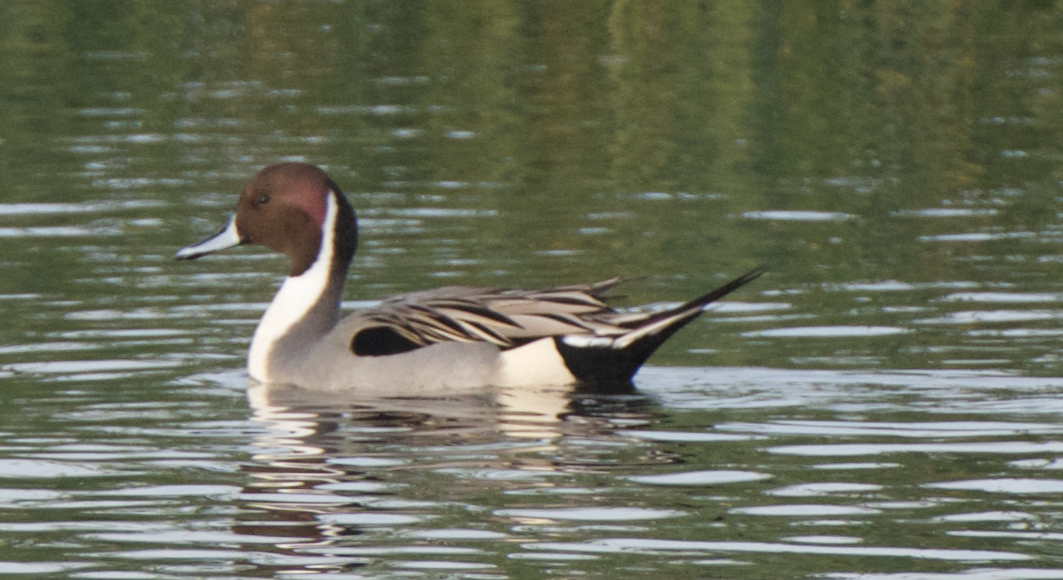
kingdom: Animalia
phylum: Chordata
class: Aves
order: Anseriformes
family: Anatidae
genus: Anas
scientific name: Anas acuta
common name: Northern pintail
